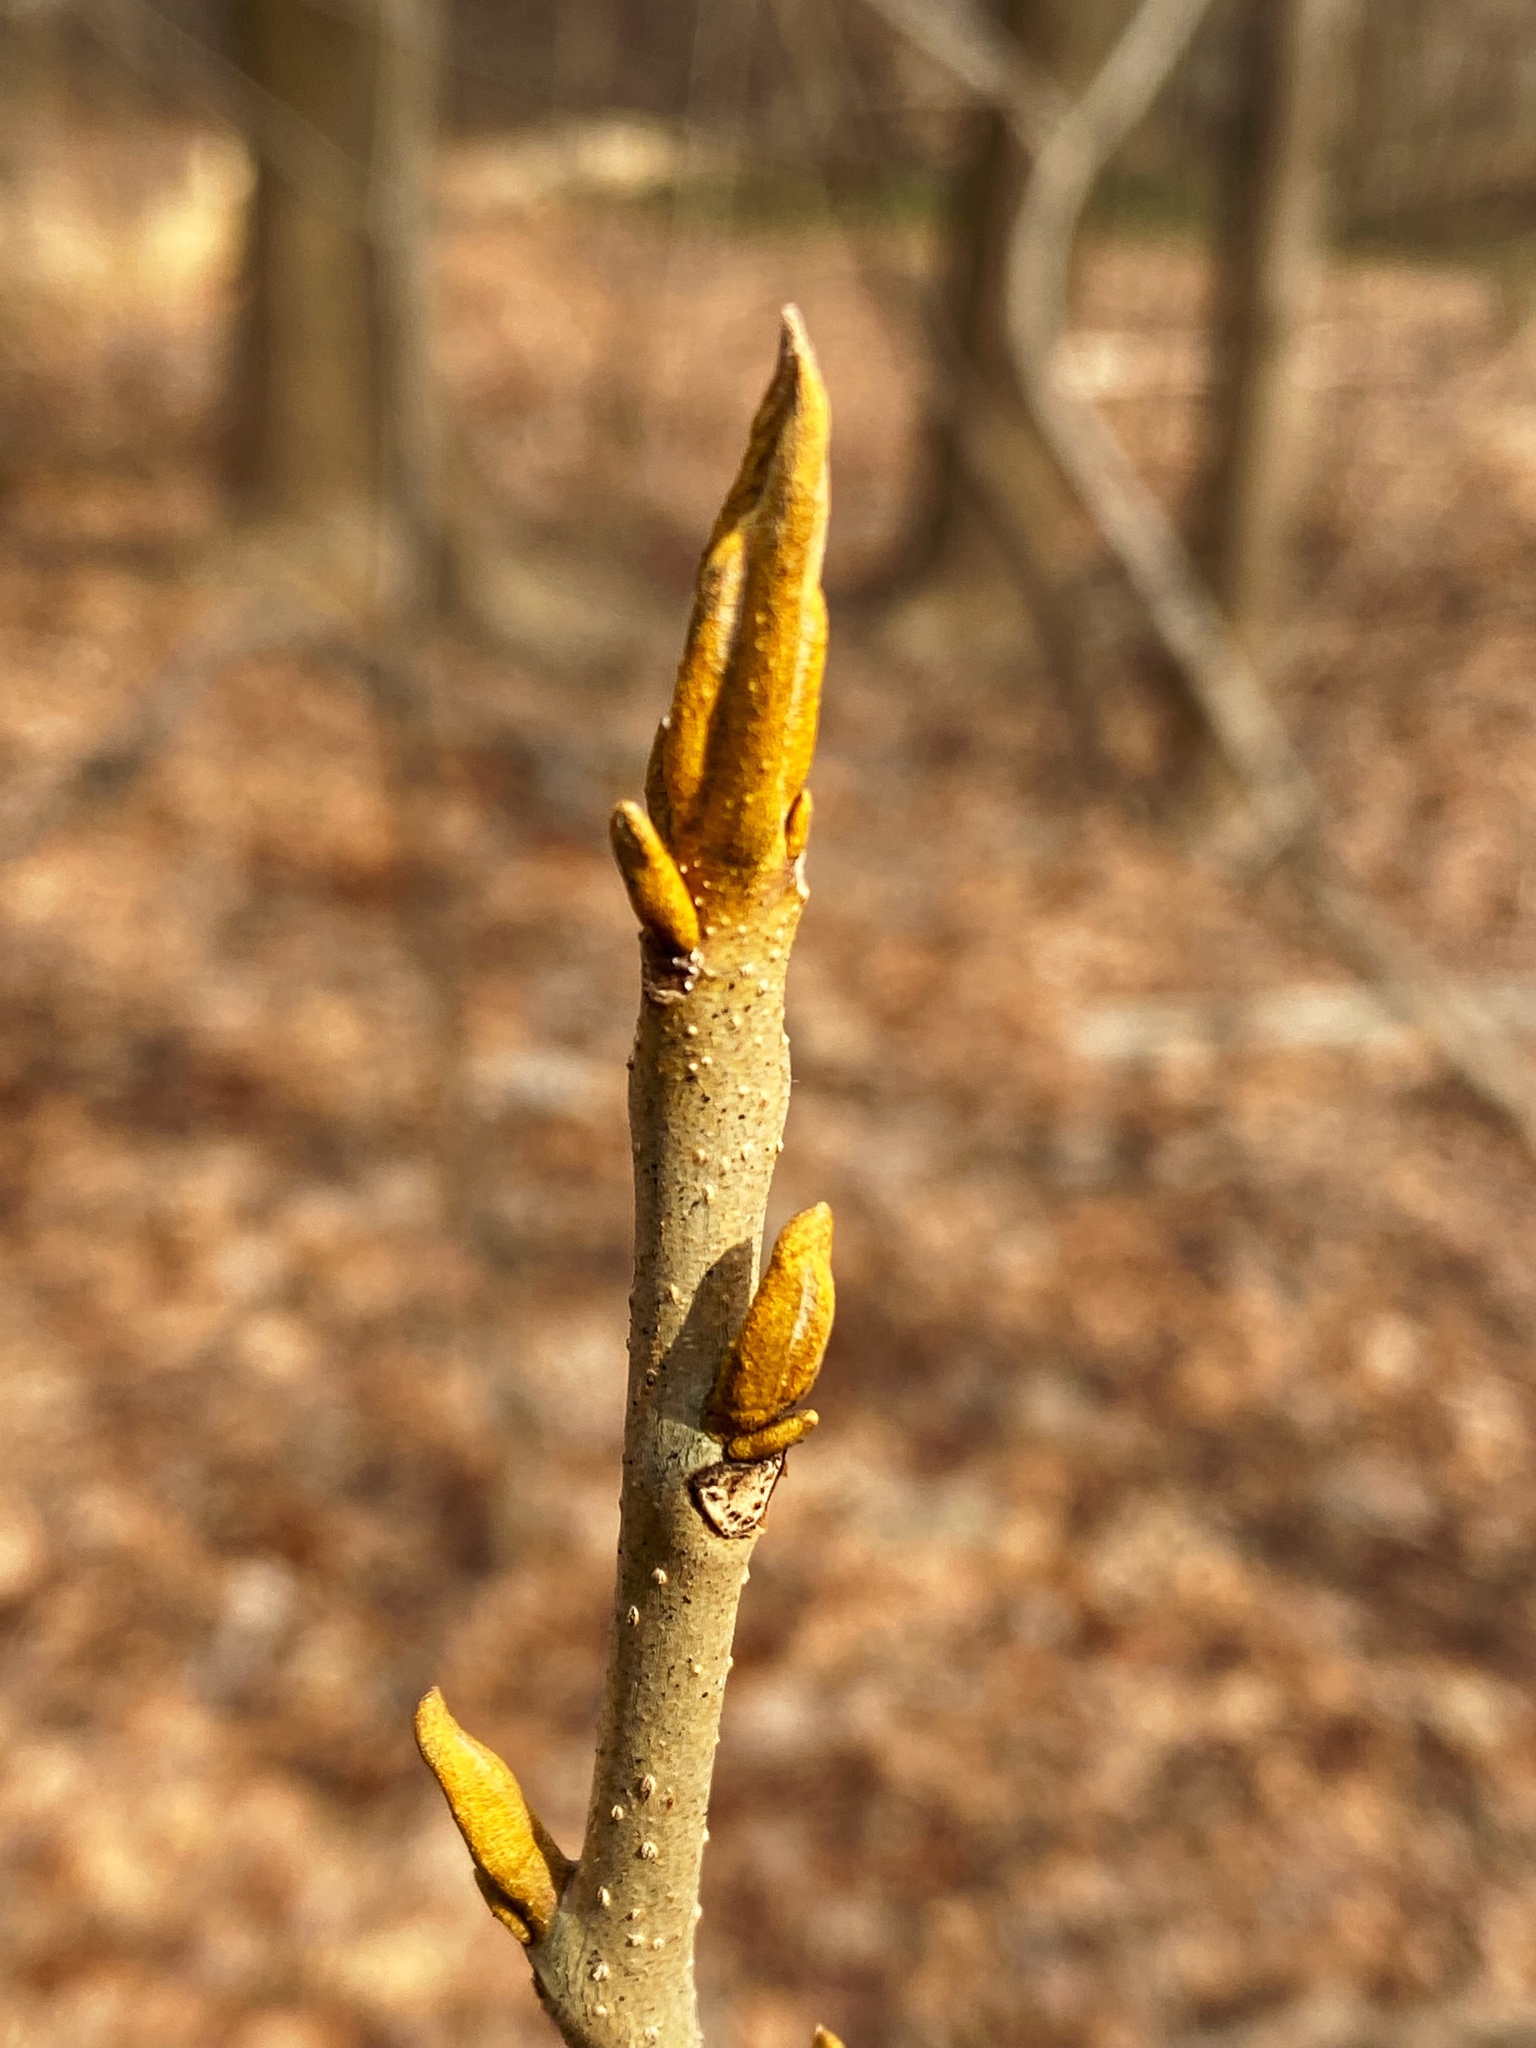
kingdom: Plantae
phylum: Tracheophyta
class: Magnoliopsida
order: Fagales
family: Juglandaceae
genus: Carya
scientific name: Carya cordiformis
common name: Bitternut hickory
